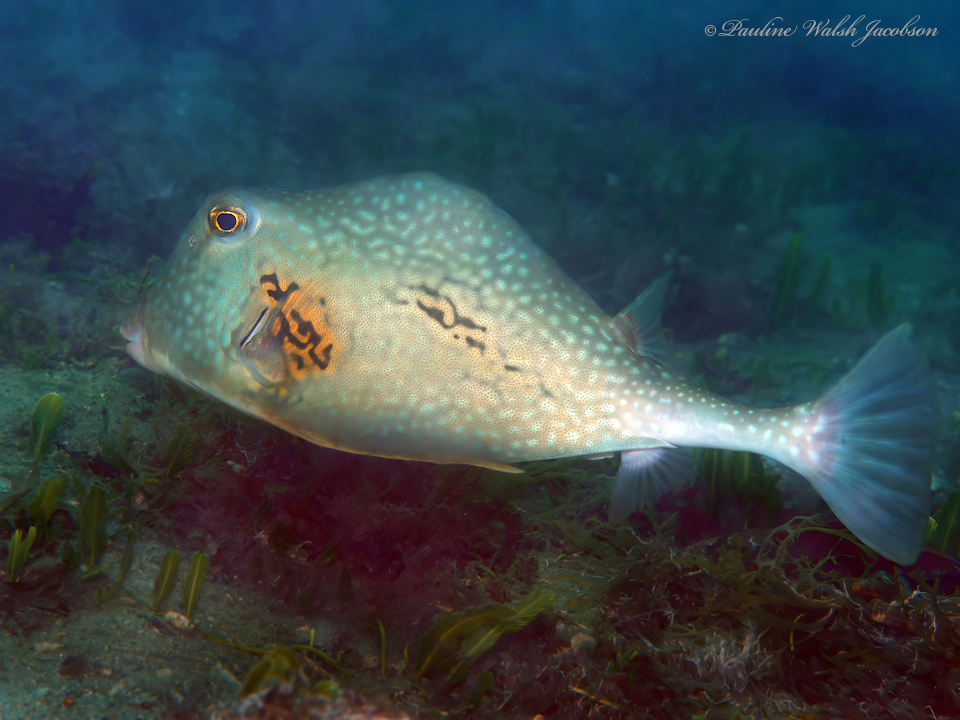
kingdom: Animalia
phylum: Chordata
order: Tetraodontiformes
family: Ostraciidae
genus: Lactophrys
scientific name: Lactophrys trigonus
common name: Buffalo trunkfish
